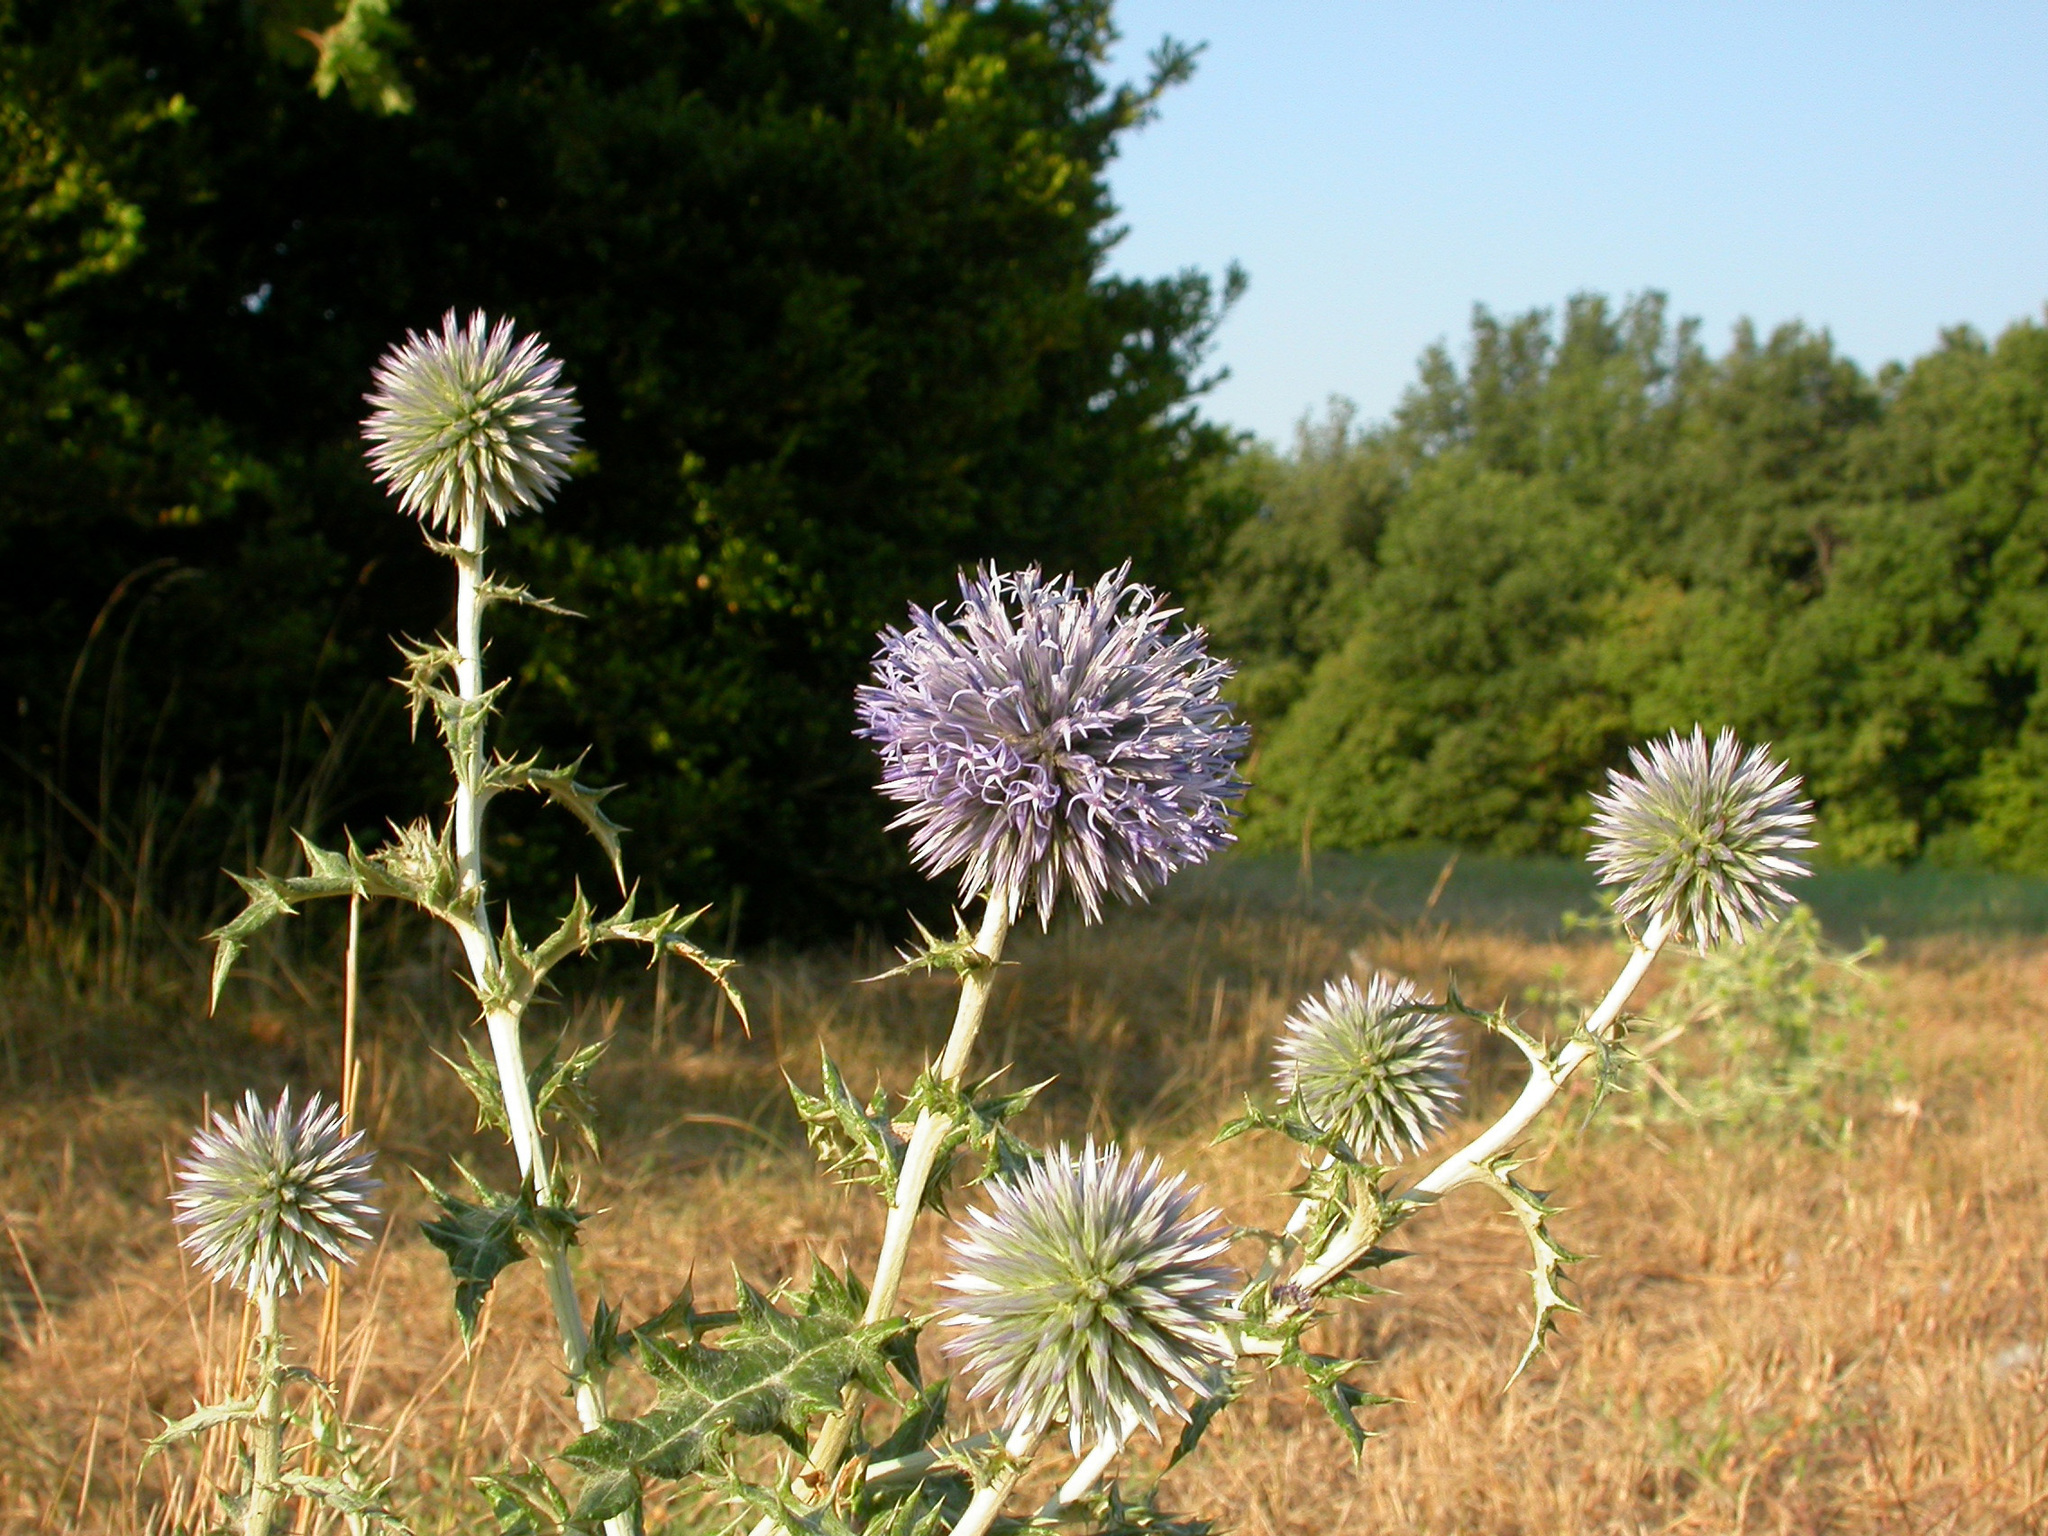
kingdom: Plantae
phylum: Tracheophyta
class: Magnoliopsida
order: Asterales
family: Asteraceae
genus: Echinops
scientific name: Echinops ritro
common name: Globe thistle
